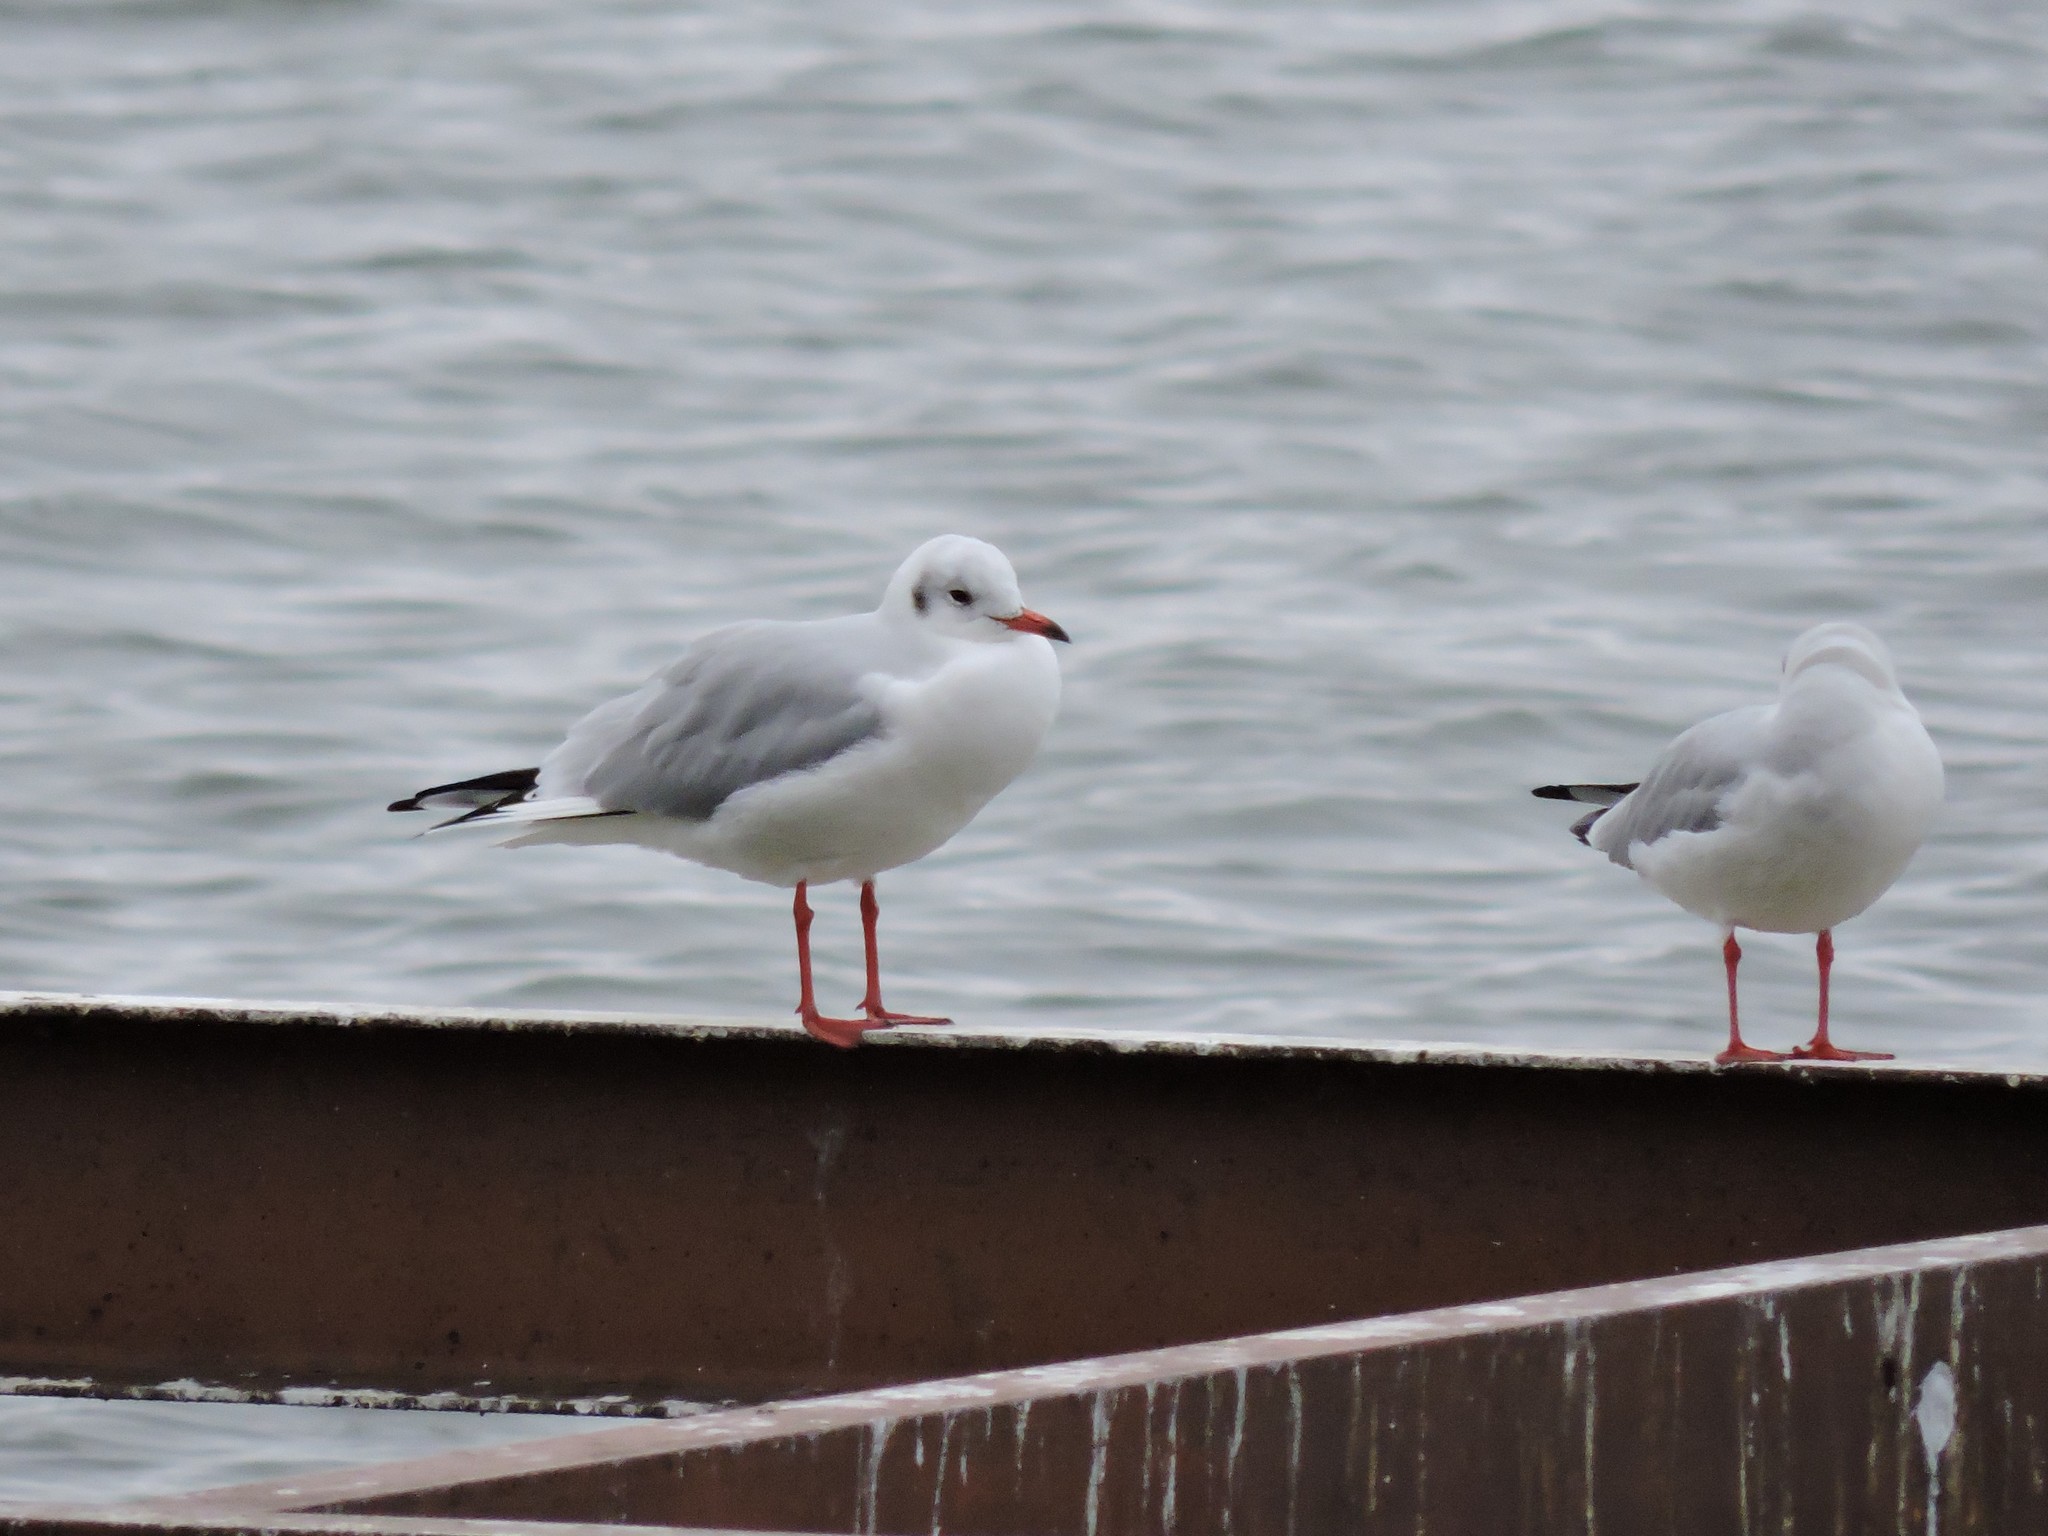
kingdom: Animalia
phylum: Chordata
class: Aves
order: Charadriiformes
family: Laridae
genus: Chroicocephalus
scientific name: Chroicocephalus ridibundus
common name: Black-headed gull
